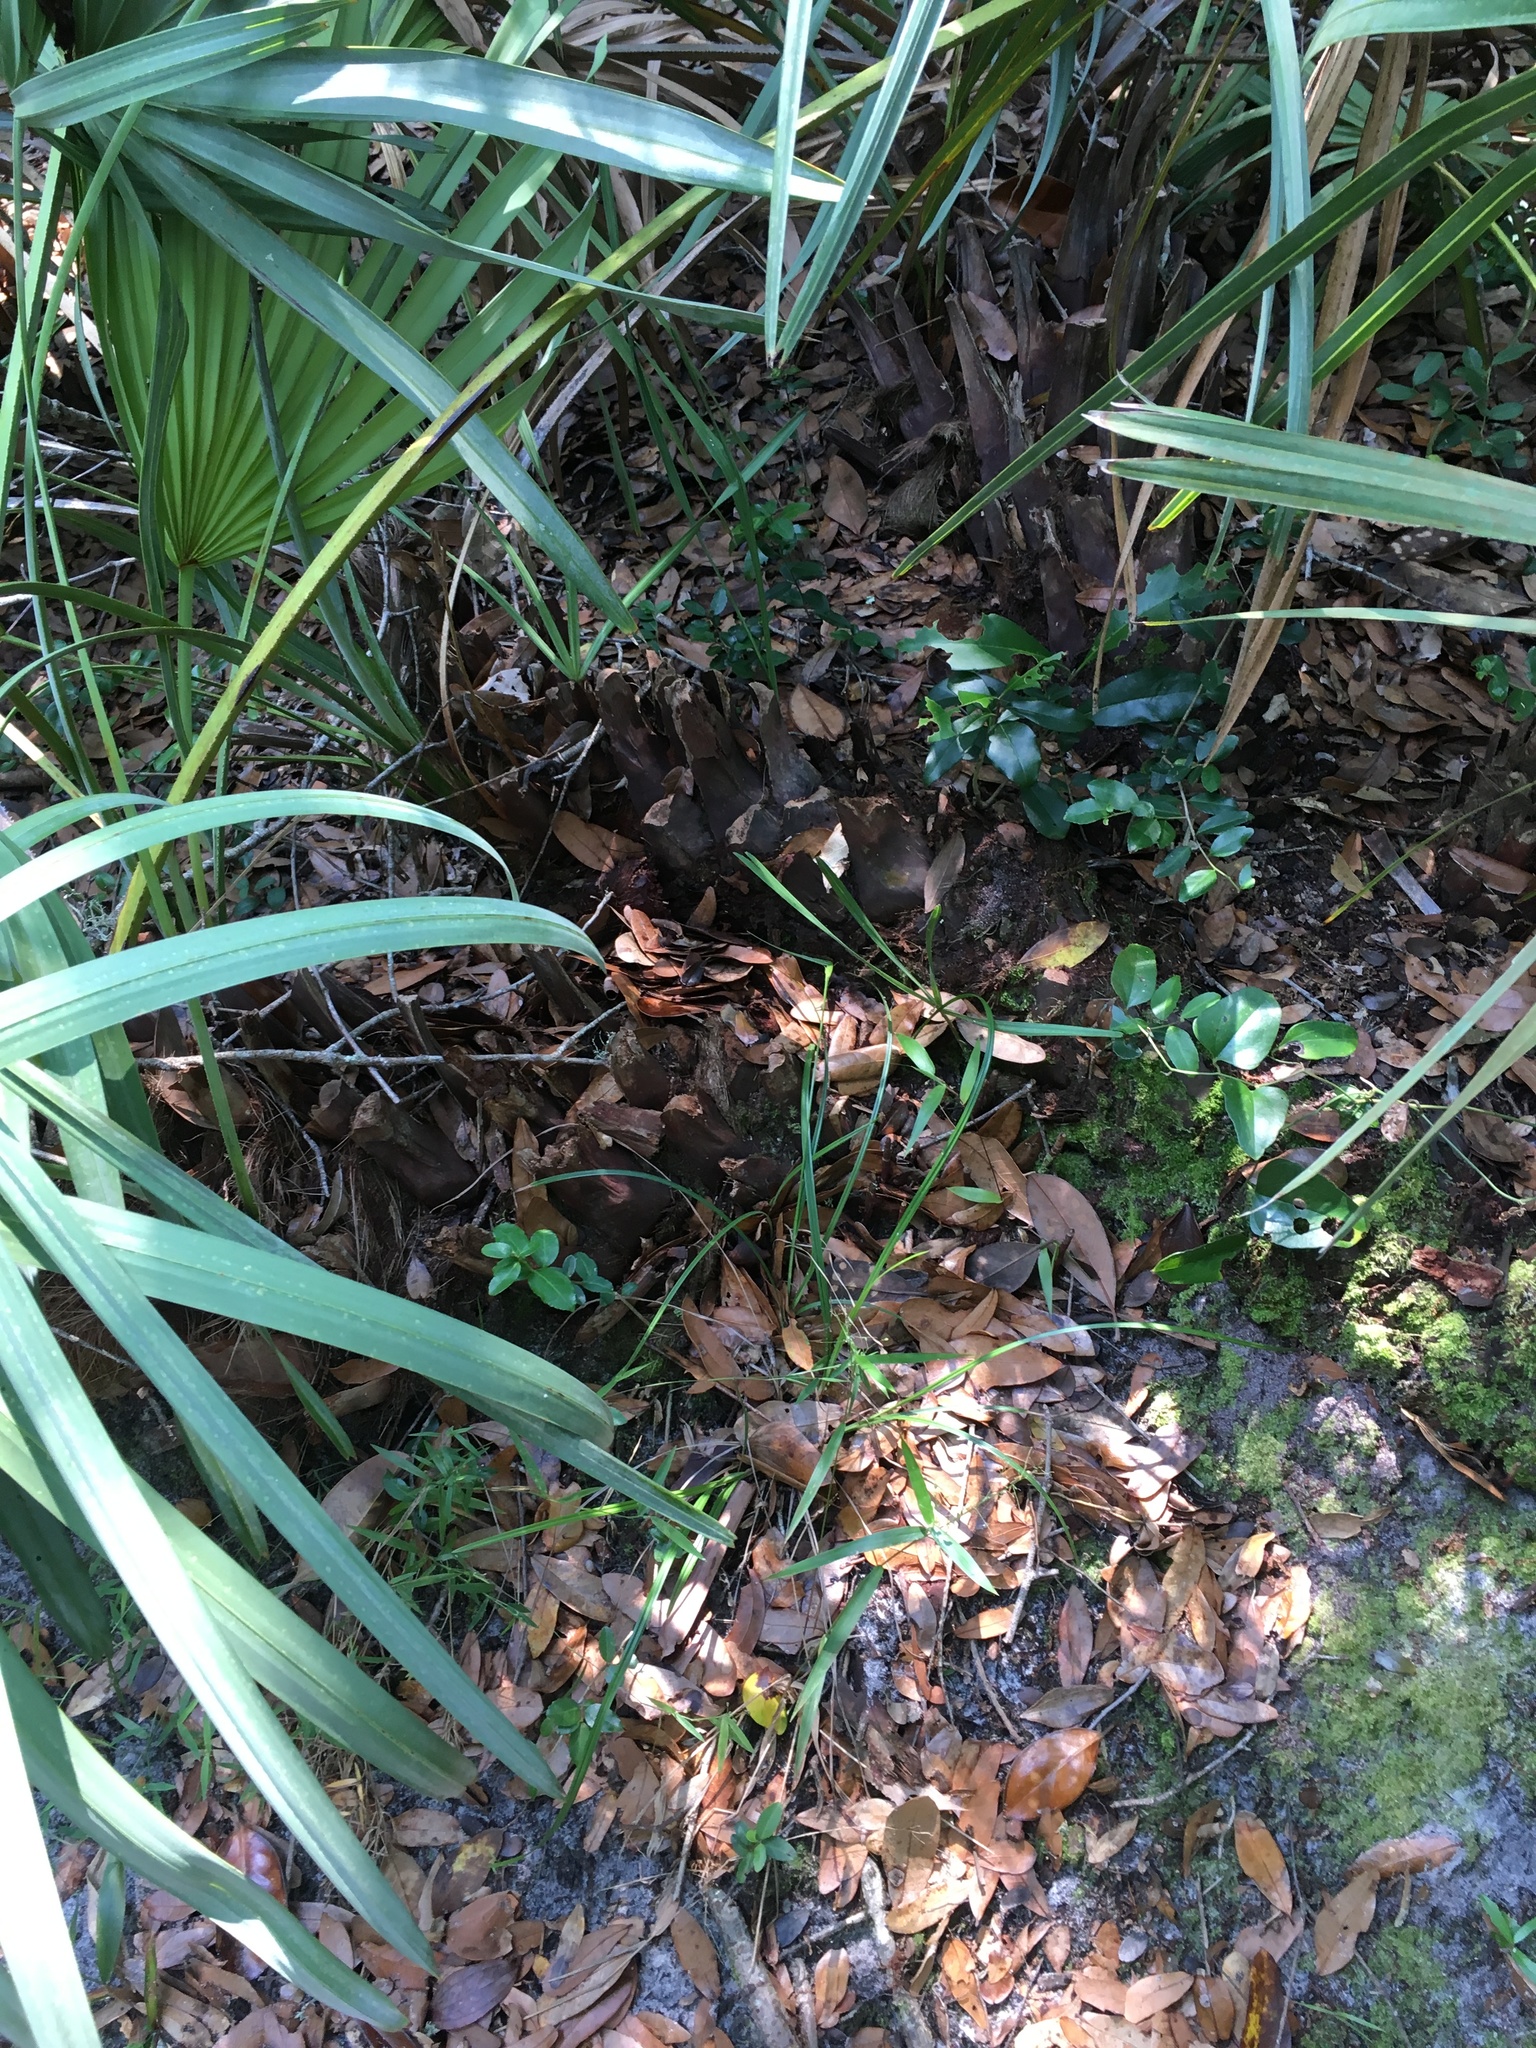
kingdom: Plantae
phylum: Tracheophyta
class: Liliopsida
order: Arecales
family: Arecaceae
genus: Serenoa
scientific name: Serenoa repens
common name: Saw-palmetto
